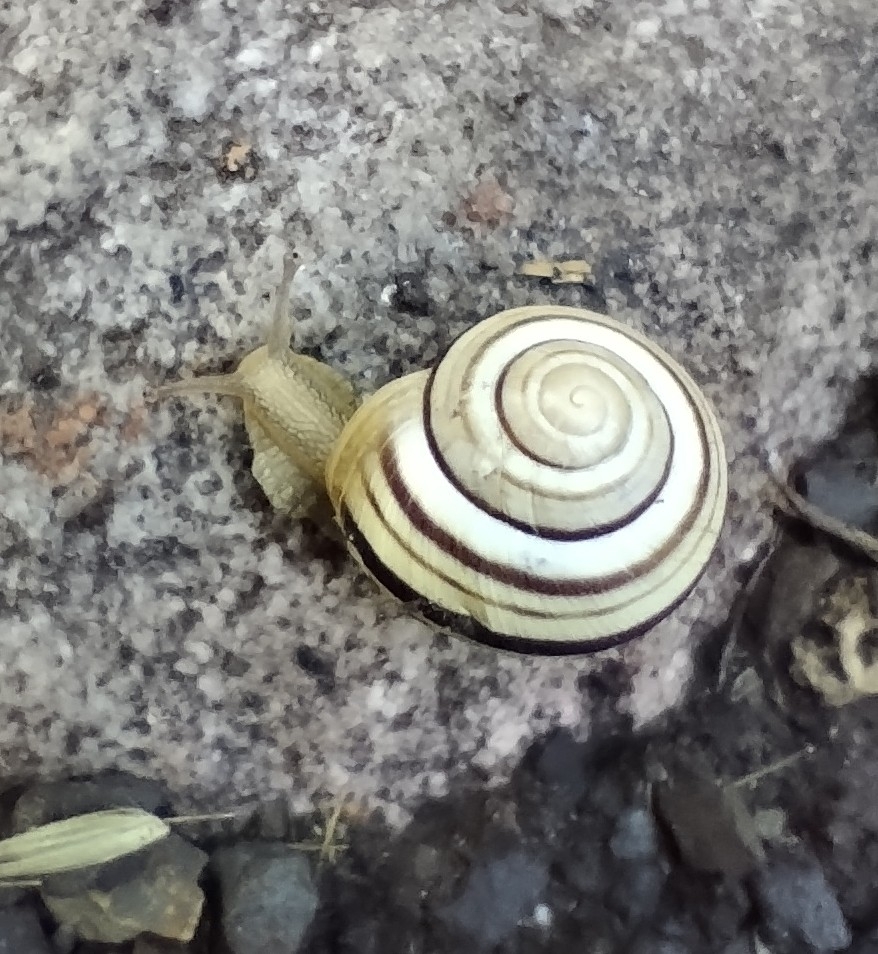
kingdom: Animalia
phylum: Mollusca
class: Gastropoda
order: Stylommatophora
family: Helicidae
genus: Caucasotachea
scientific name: Caucasotachea vindobonensis
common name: European helicid land snail
